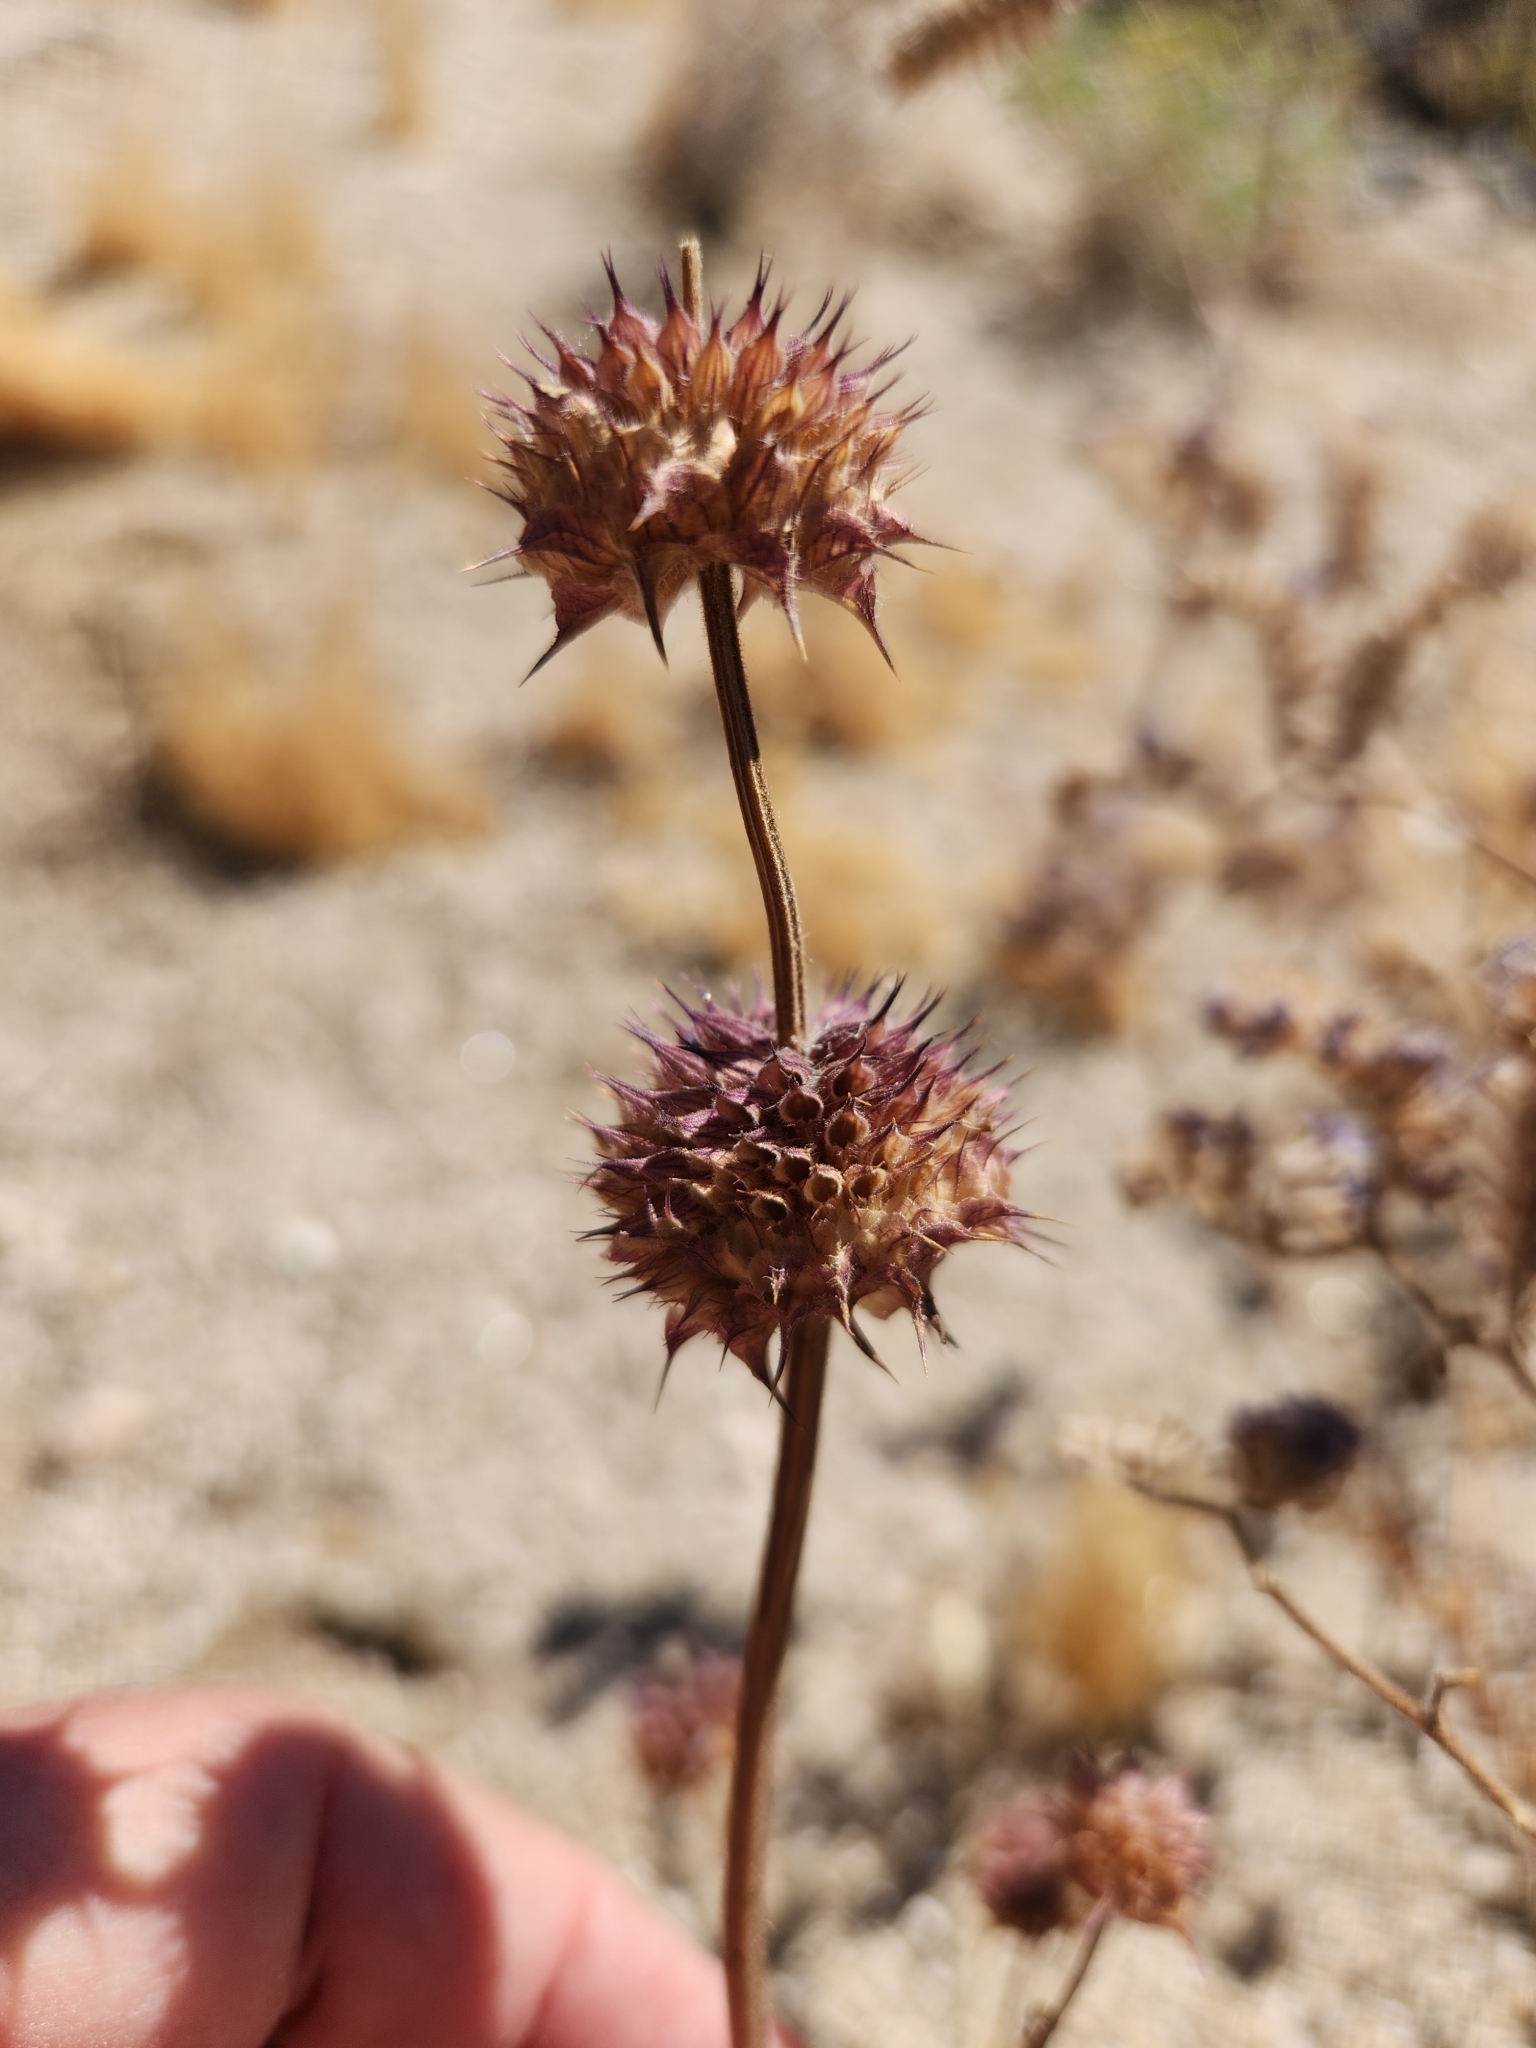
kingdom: Plantae
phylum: Tracheophyta
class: Magnoliopsida
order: Lamiales
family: Lamiaceae
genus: Salvia
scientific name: Salvia columbariae
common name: Chia
